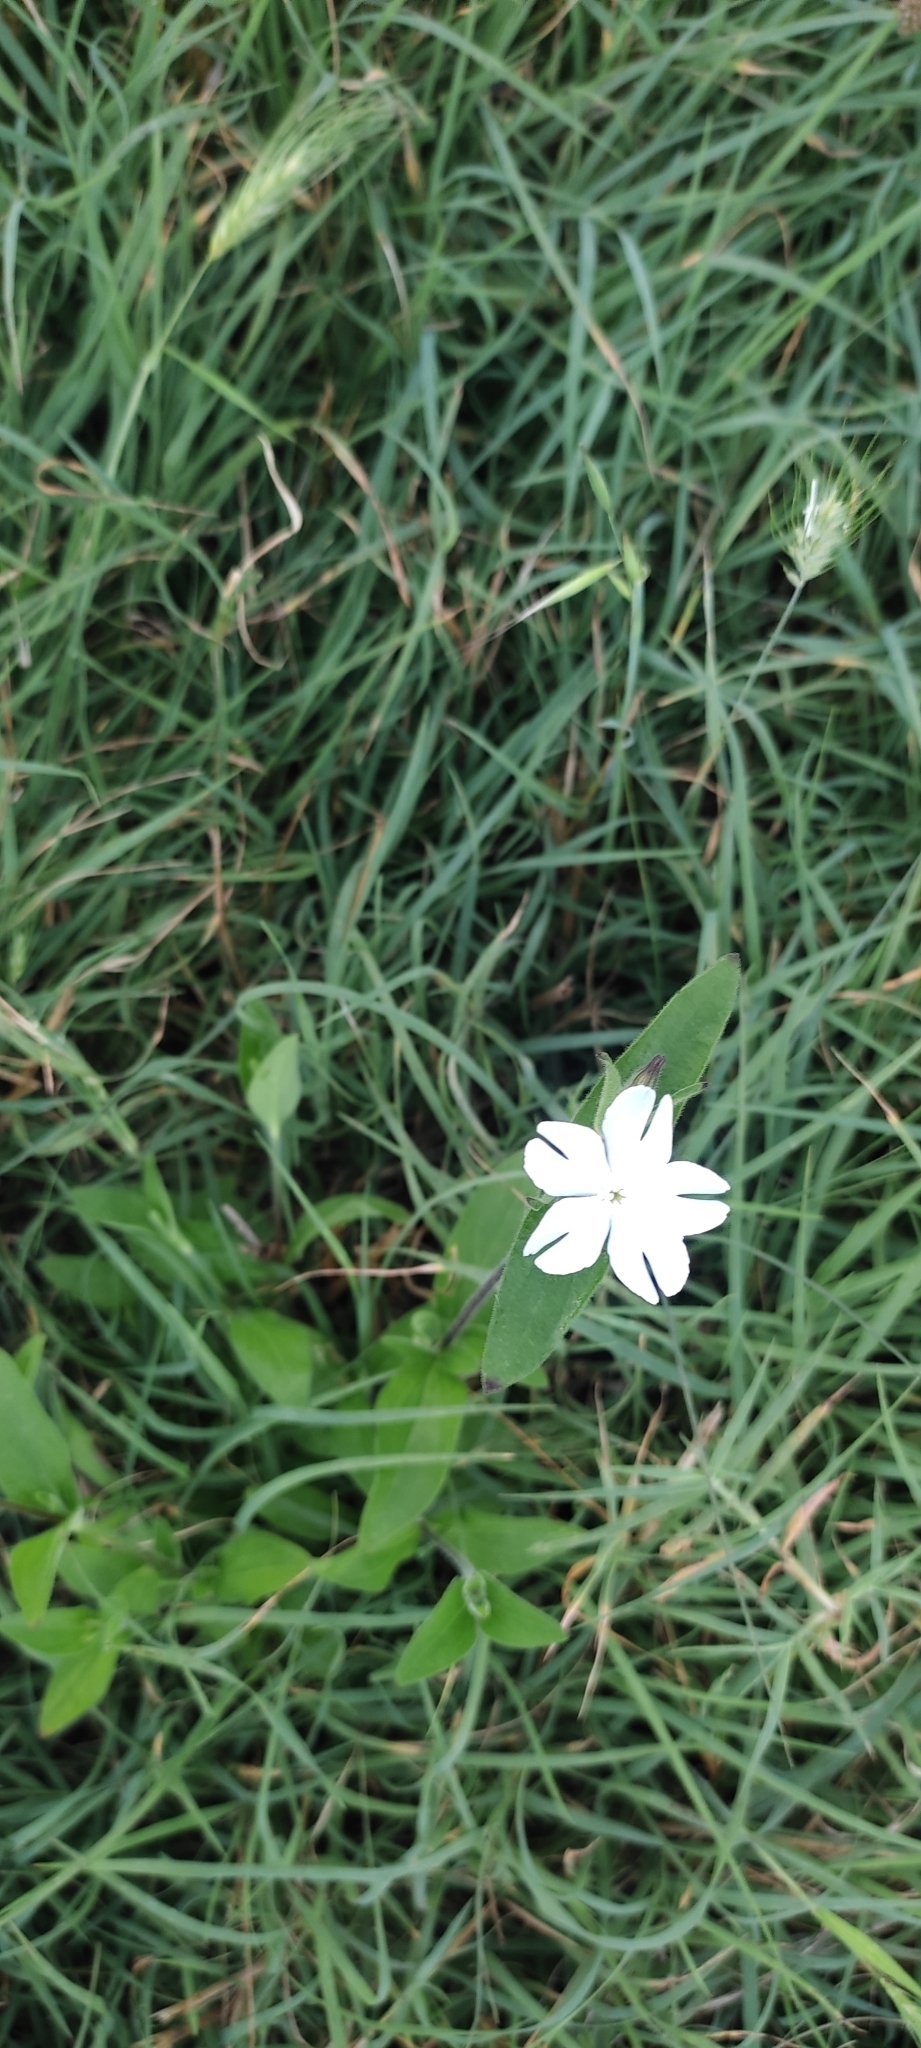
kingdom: Plantae
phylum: Tracheophyta
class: Magnoliopsida
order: Caryophyllales
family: Caryophyllaceae
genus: Silene
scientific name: Silene latifolia
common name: White campion
